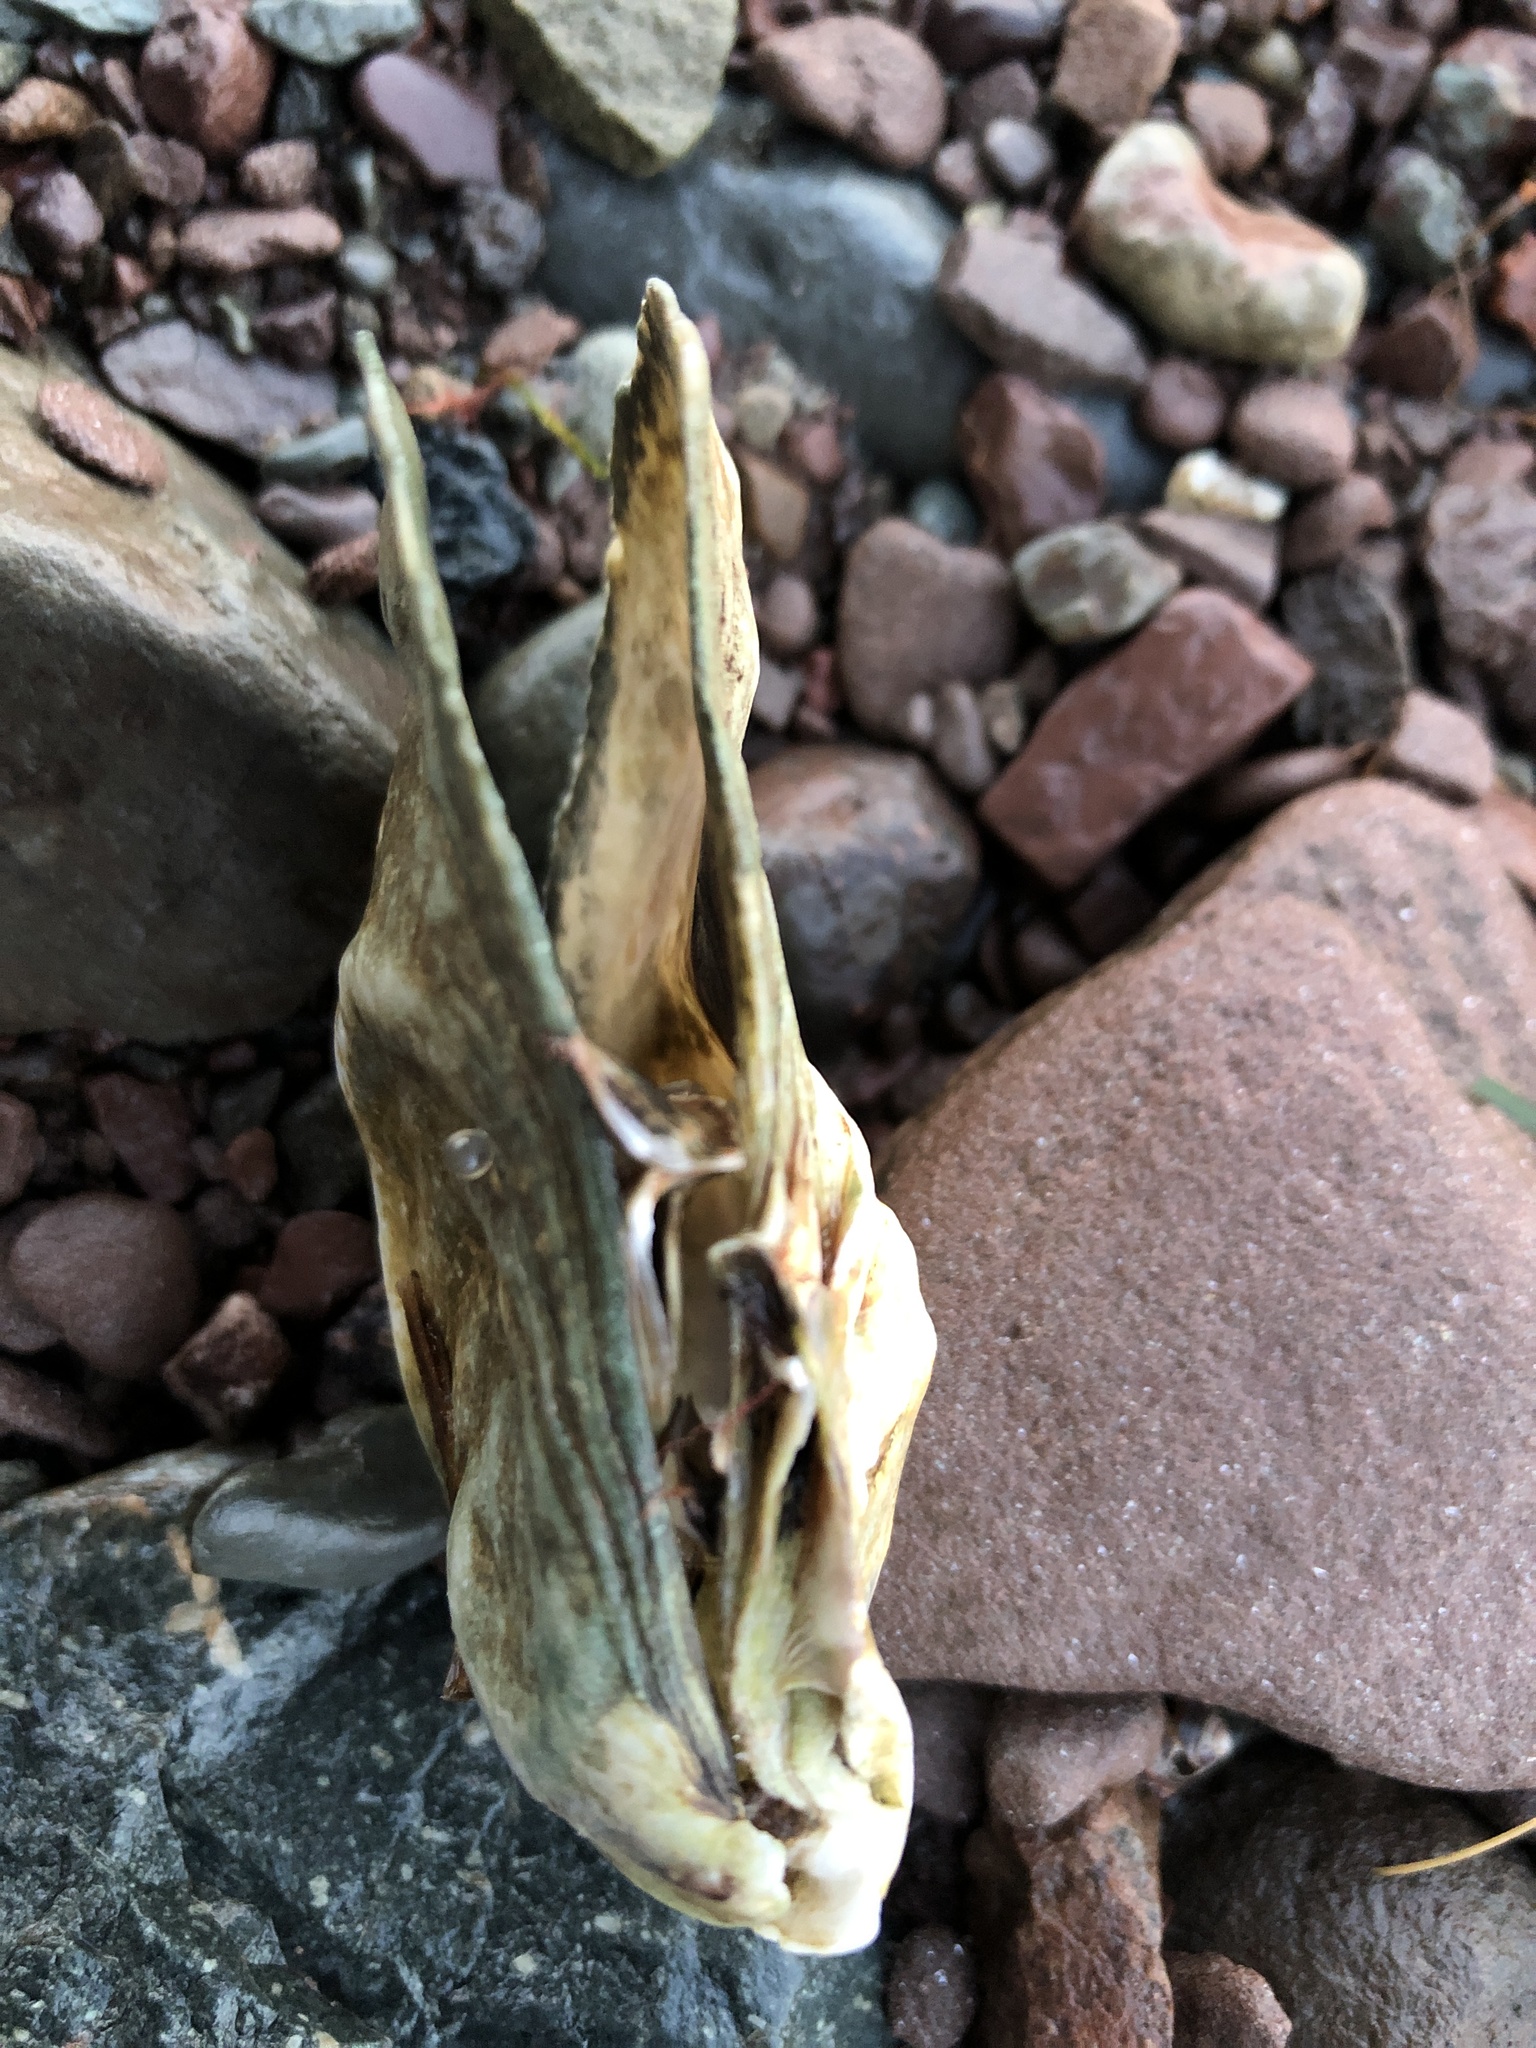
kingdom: Animalia
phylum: Mollusca
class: Bivalvia
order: Ostreida
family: Ostreidae
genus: Crassostrea
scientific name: Crassostrea virginica
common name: American oyster
